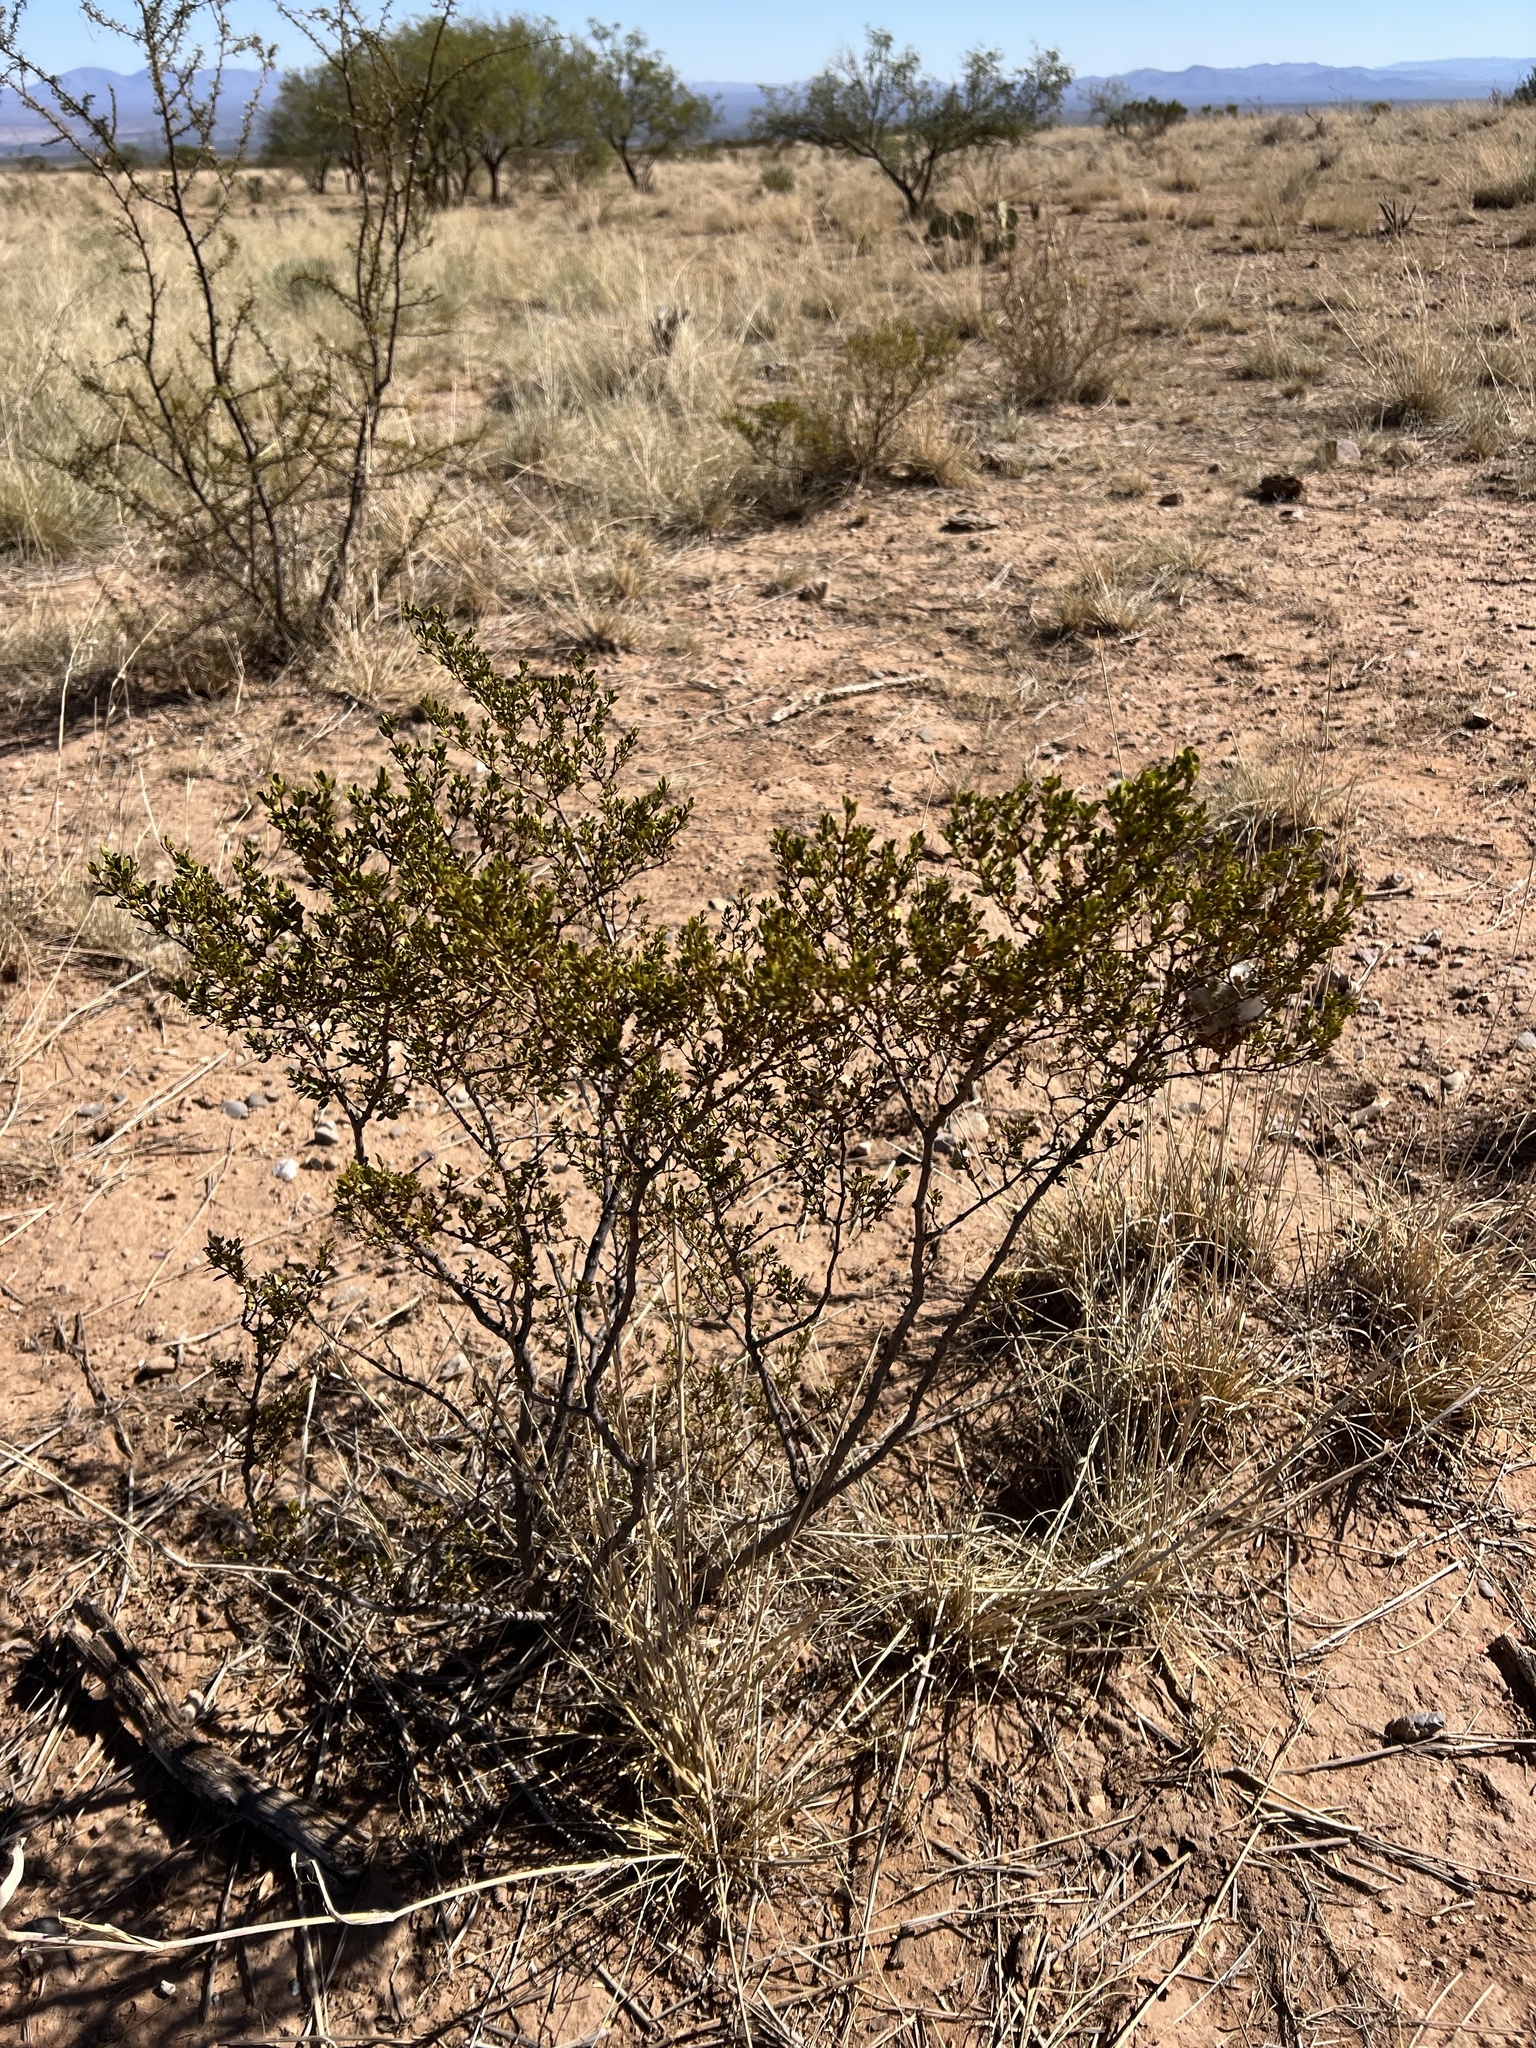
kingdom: Plantae
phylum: Tracheophyta
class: Magnoliopsida
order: Zygophyllales
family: Zygophyllaceae
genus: Larrea
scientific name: Larrea tridentata
